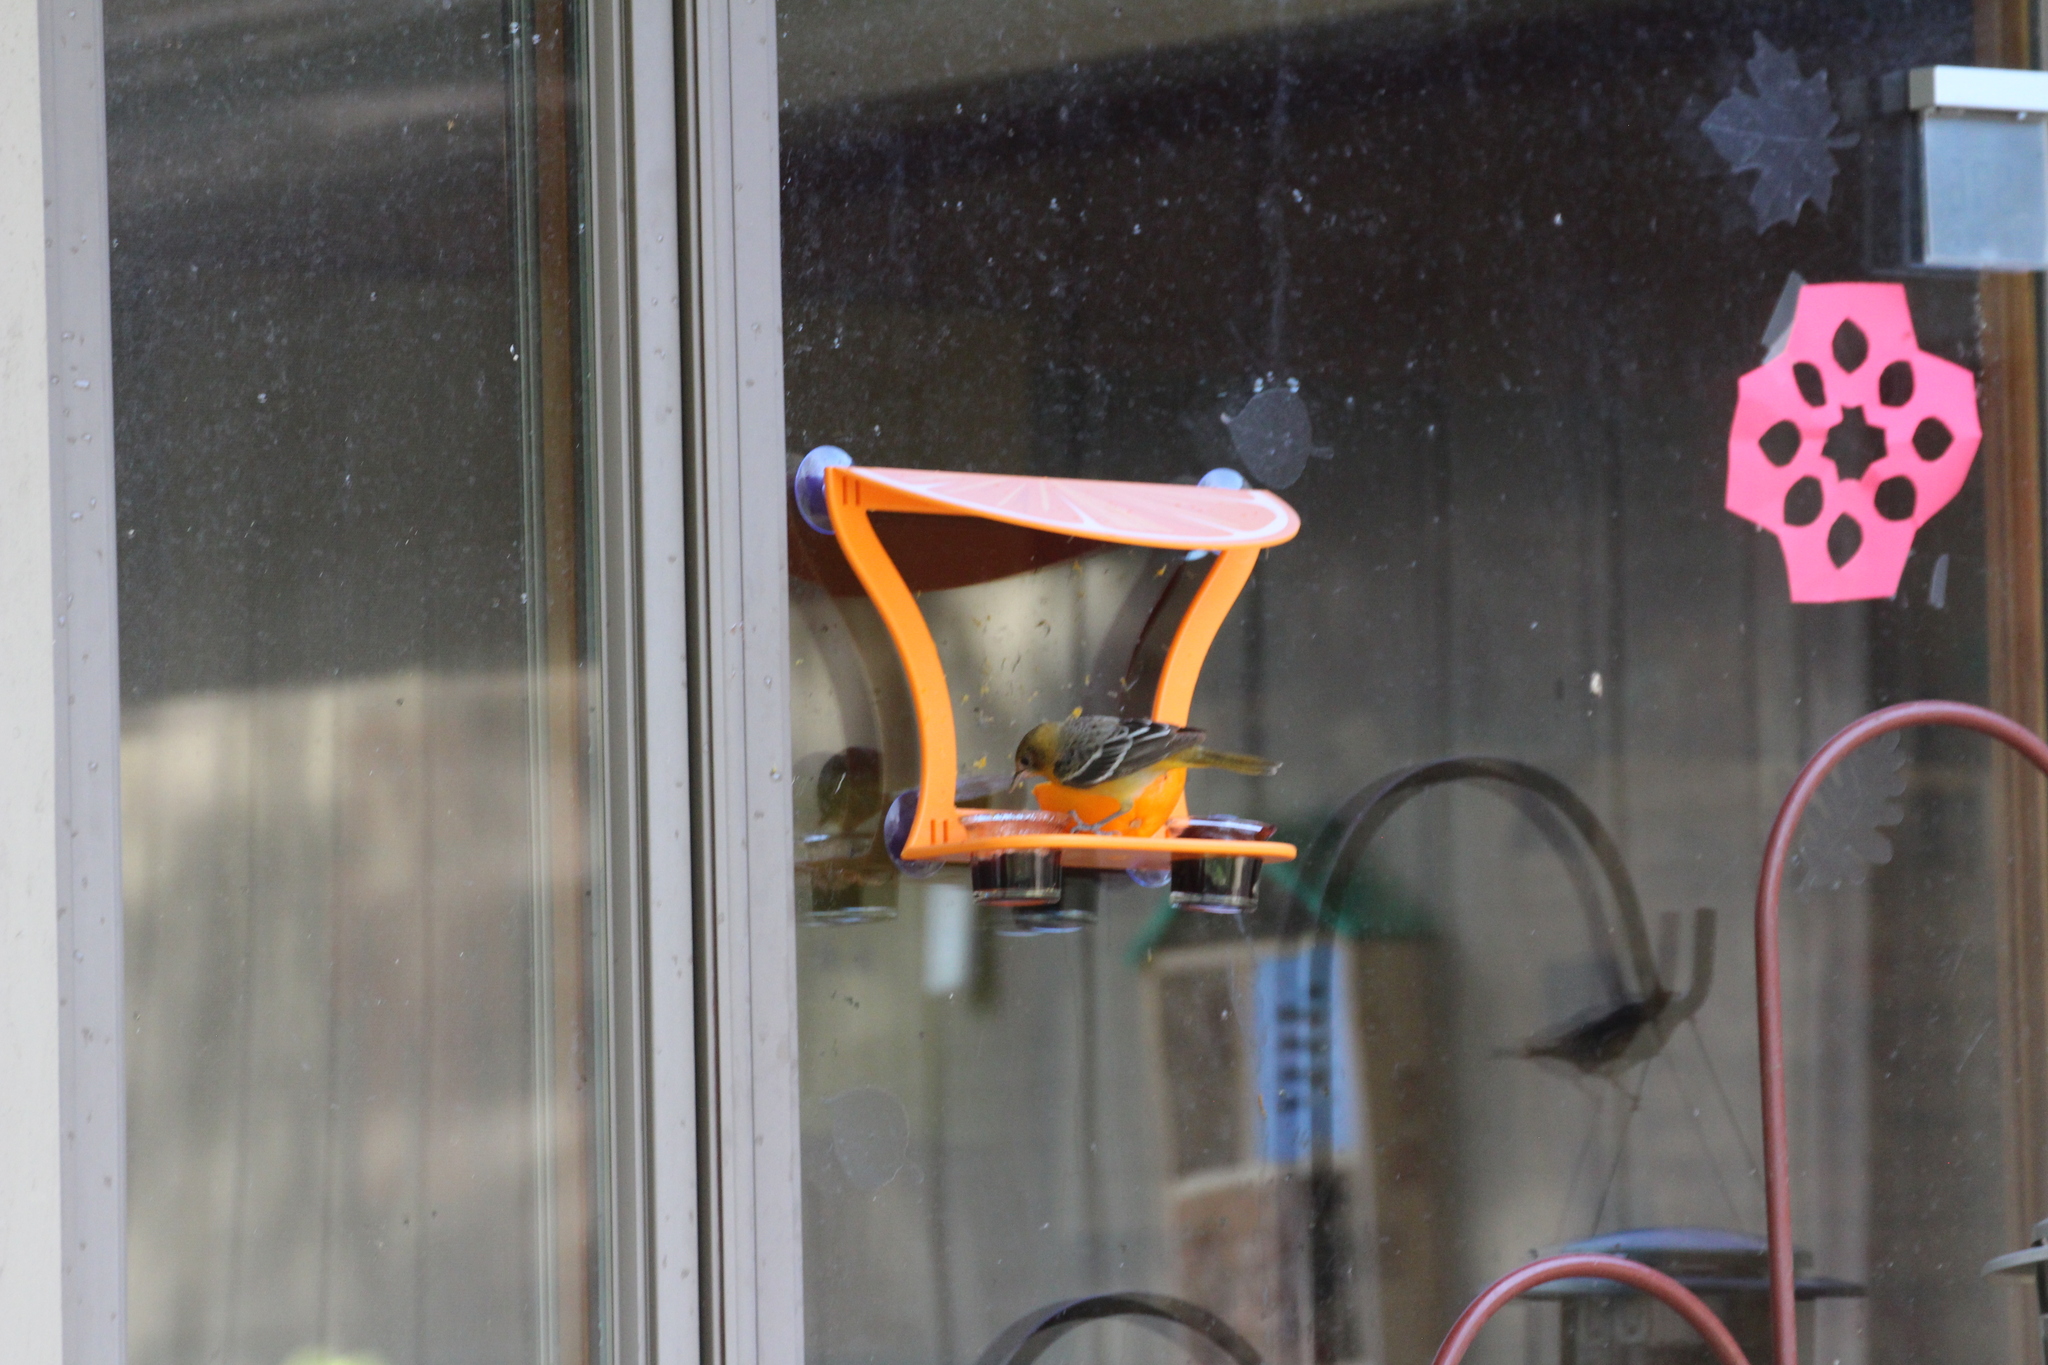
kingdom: Animalia
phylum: Chordata
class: Aves
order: Passeriformes
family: Icteridae
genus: Icterus
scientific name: Icterus galbula
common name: Baltimore oriole
